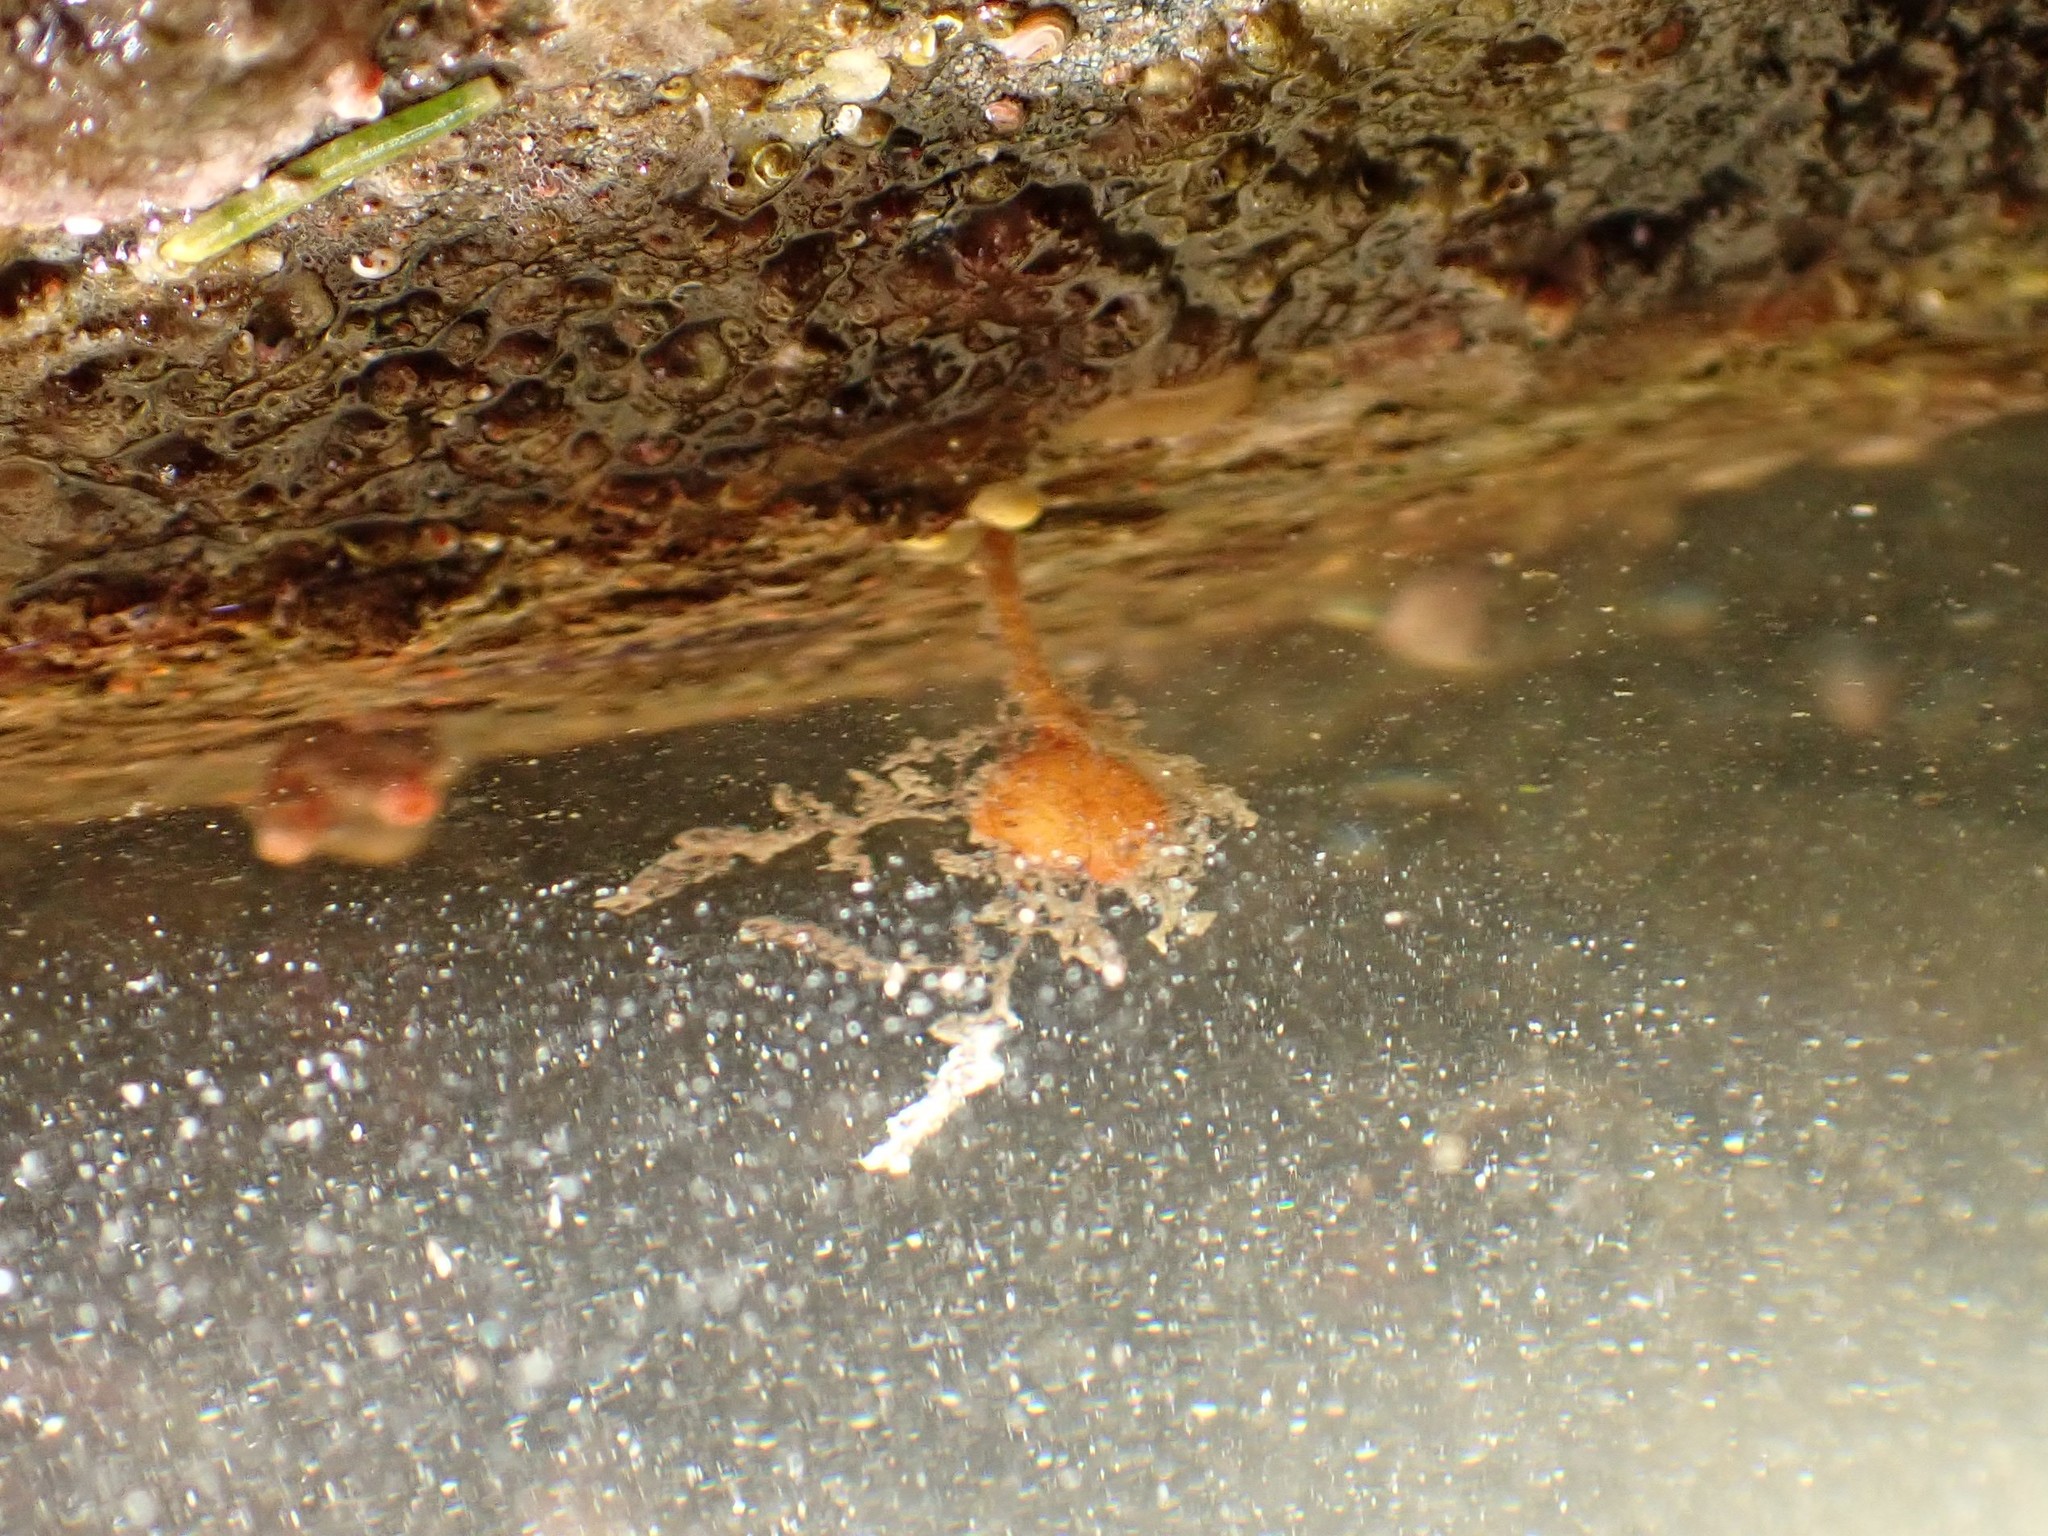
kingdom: Animalia
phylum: Chordata
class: Ascidiacea
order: Stolidobranchia
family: Pyuridae
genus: Boltenia
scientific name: Boltenia villosa
